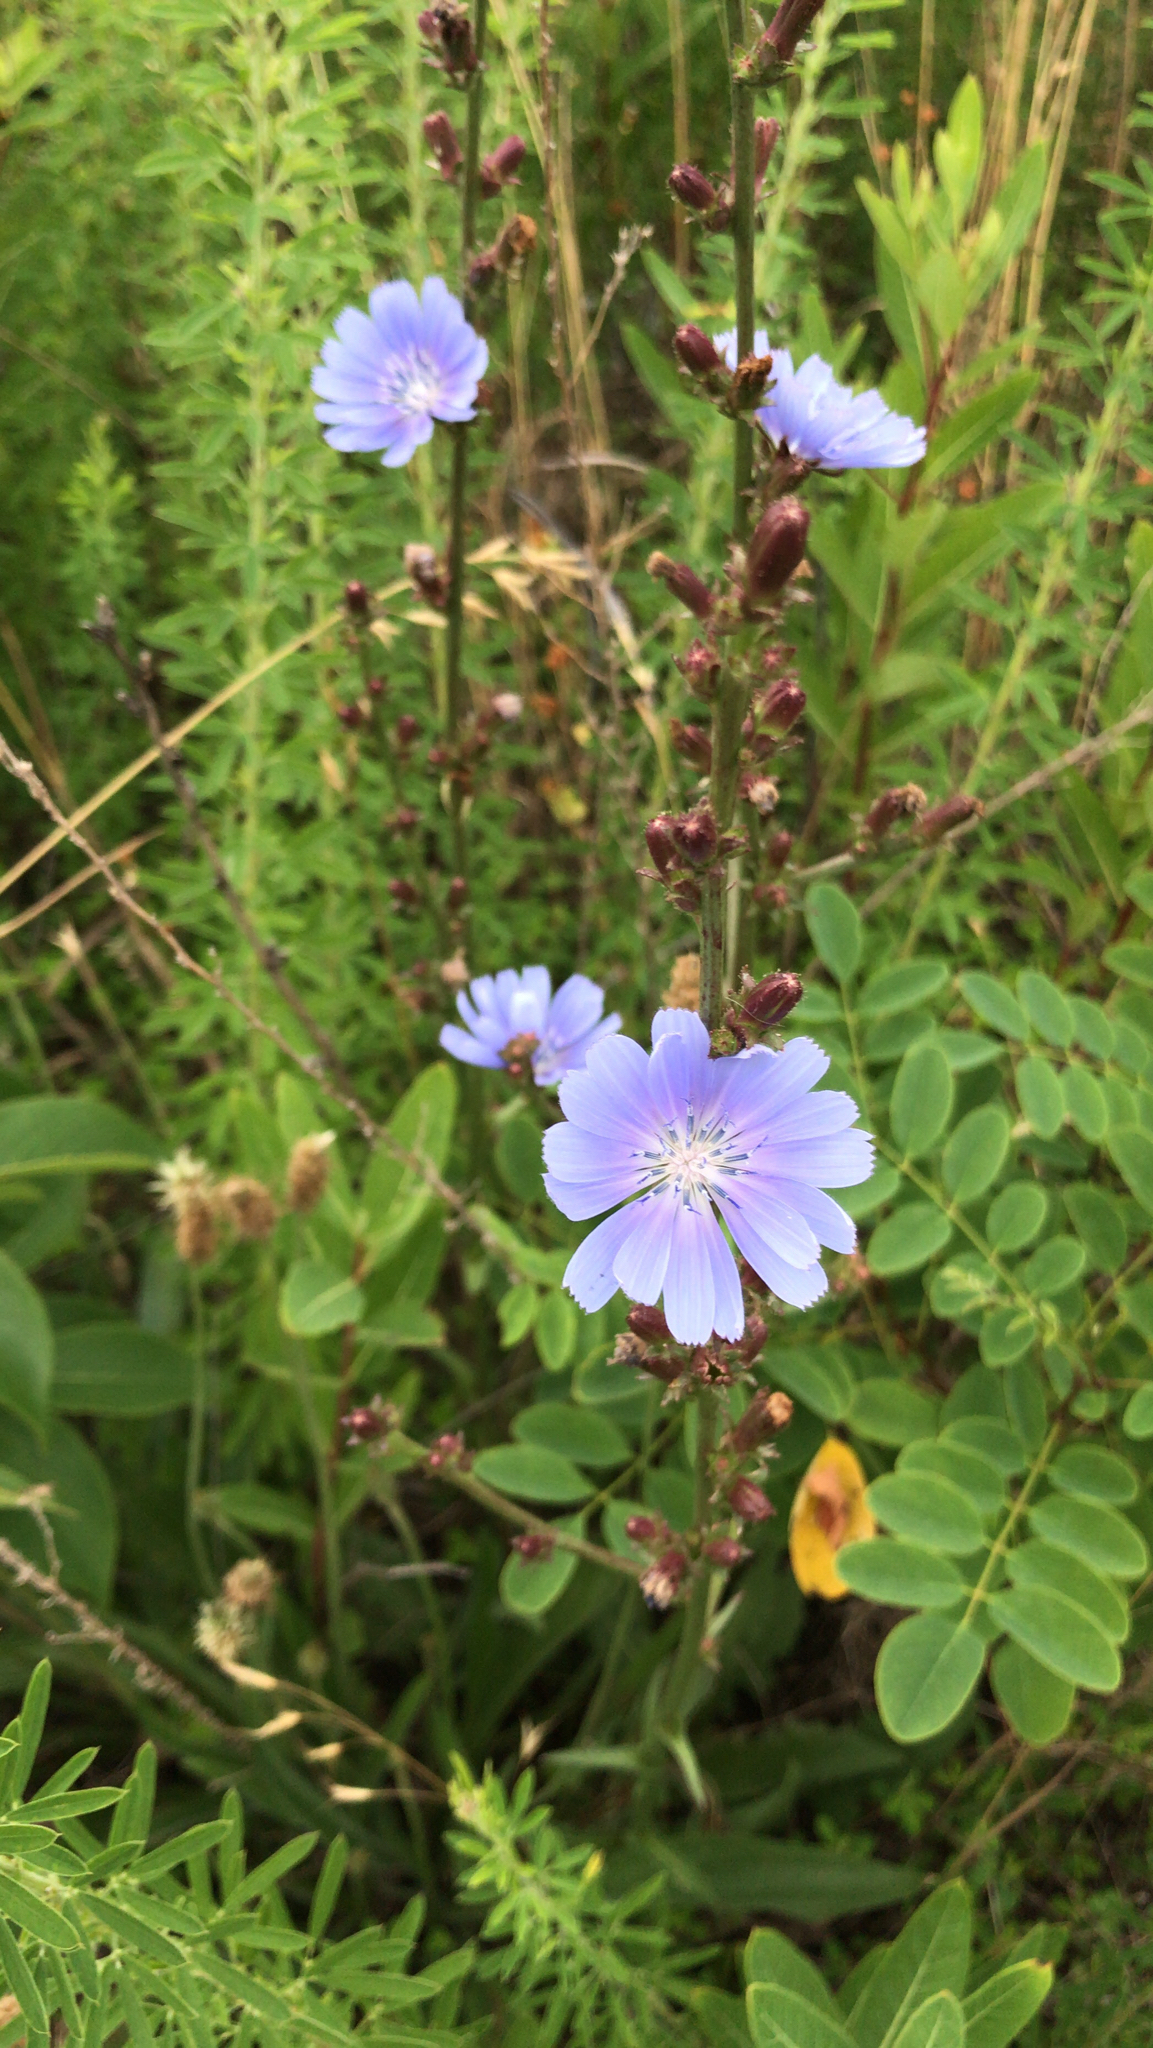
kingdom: Plantae
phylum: Tracheophyta
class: Magnoliopsida
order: Asterales
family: Asteraceae
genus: Cichorium
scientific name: Cichorium intybus
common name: Chicory
